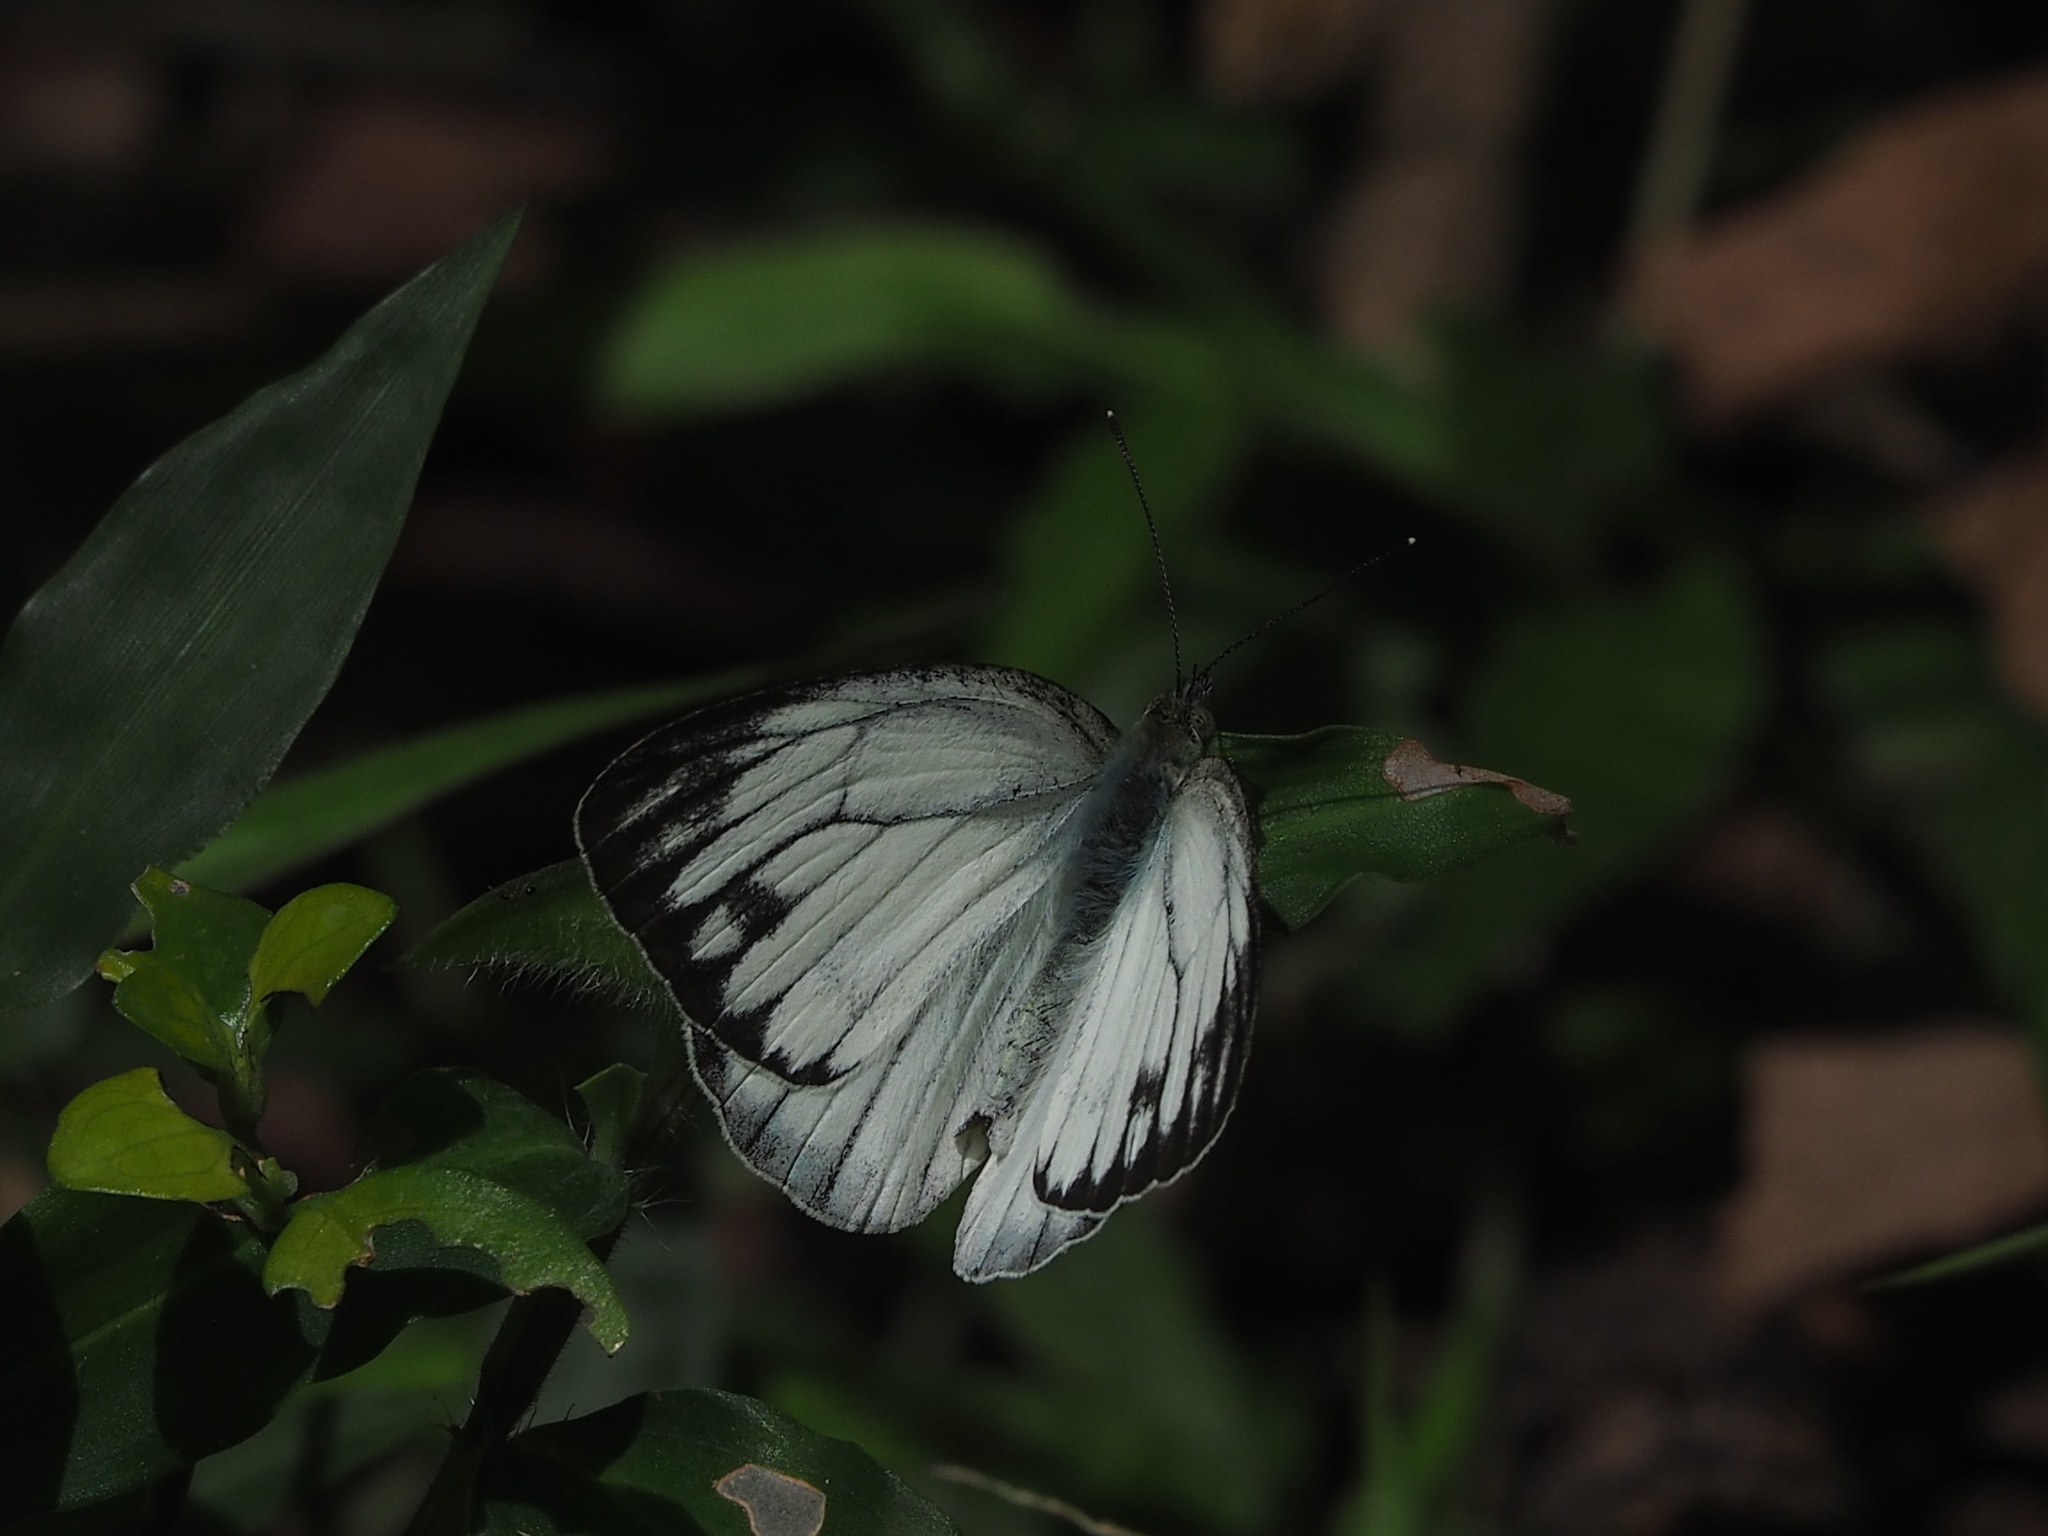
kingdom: Animalia
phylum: Arthropoda
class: Insecta
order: Lepidoptera
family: Pieridae
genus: Cepora
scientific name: Cepora nerissa
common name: Common gull
